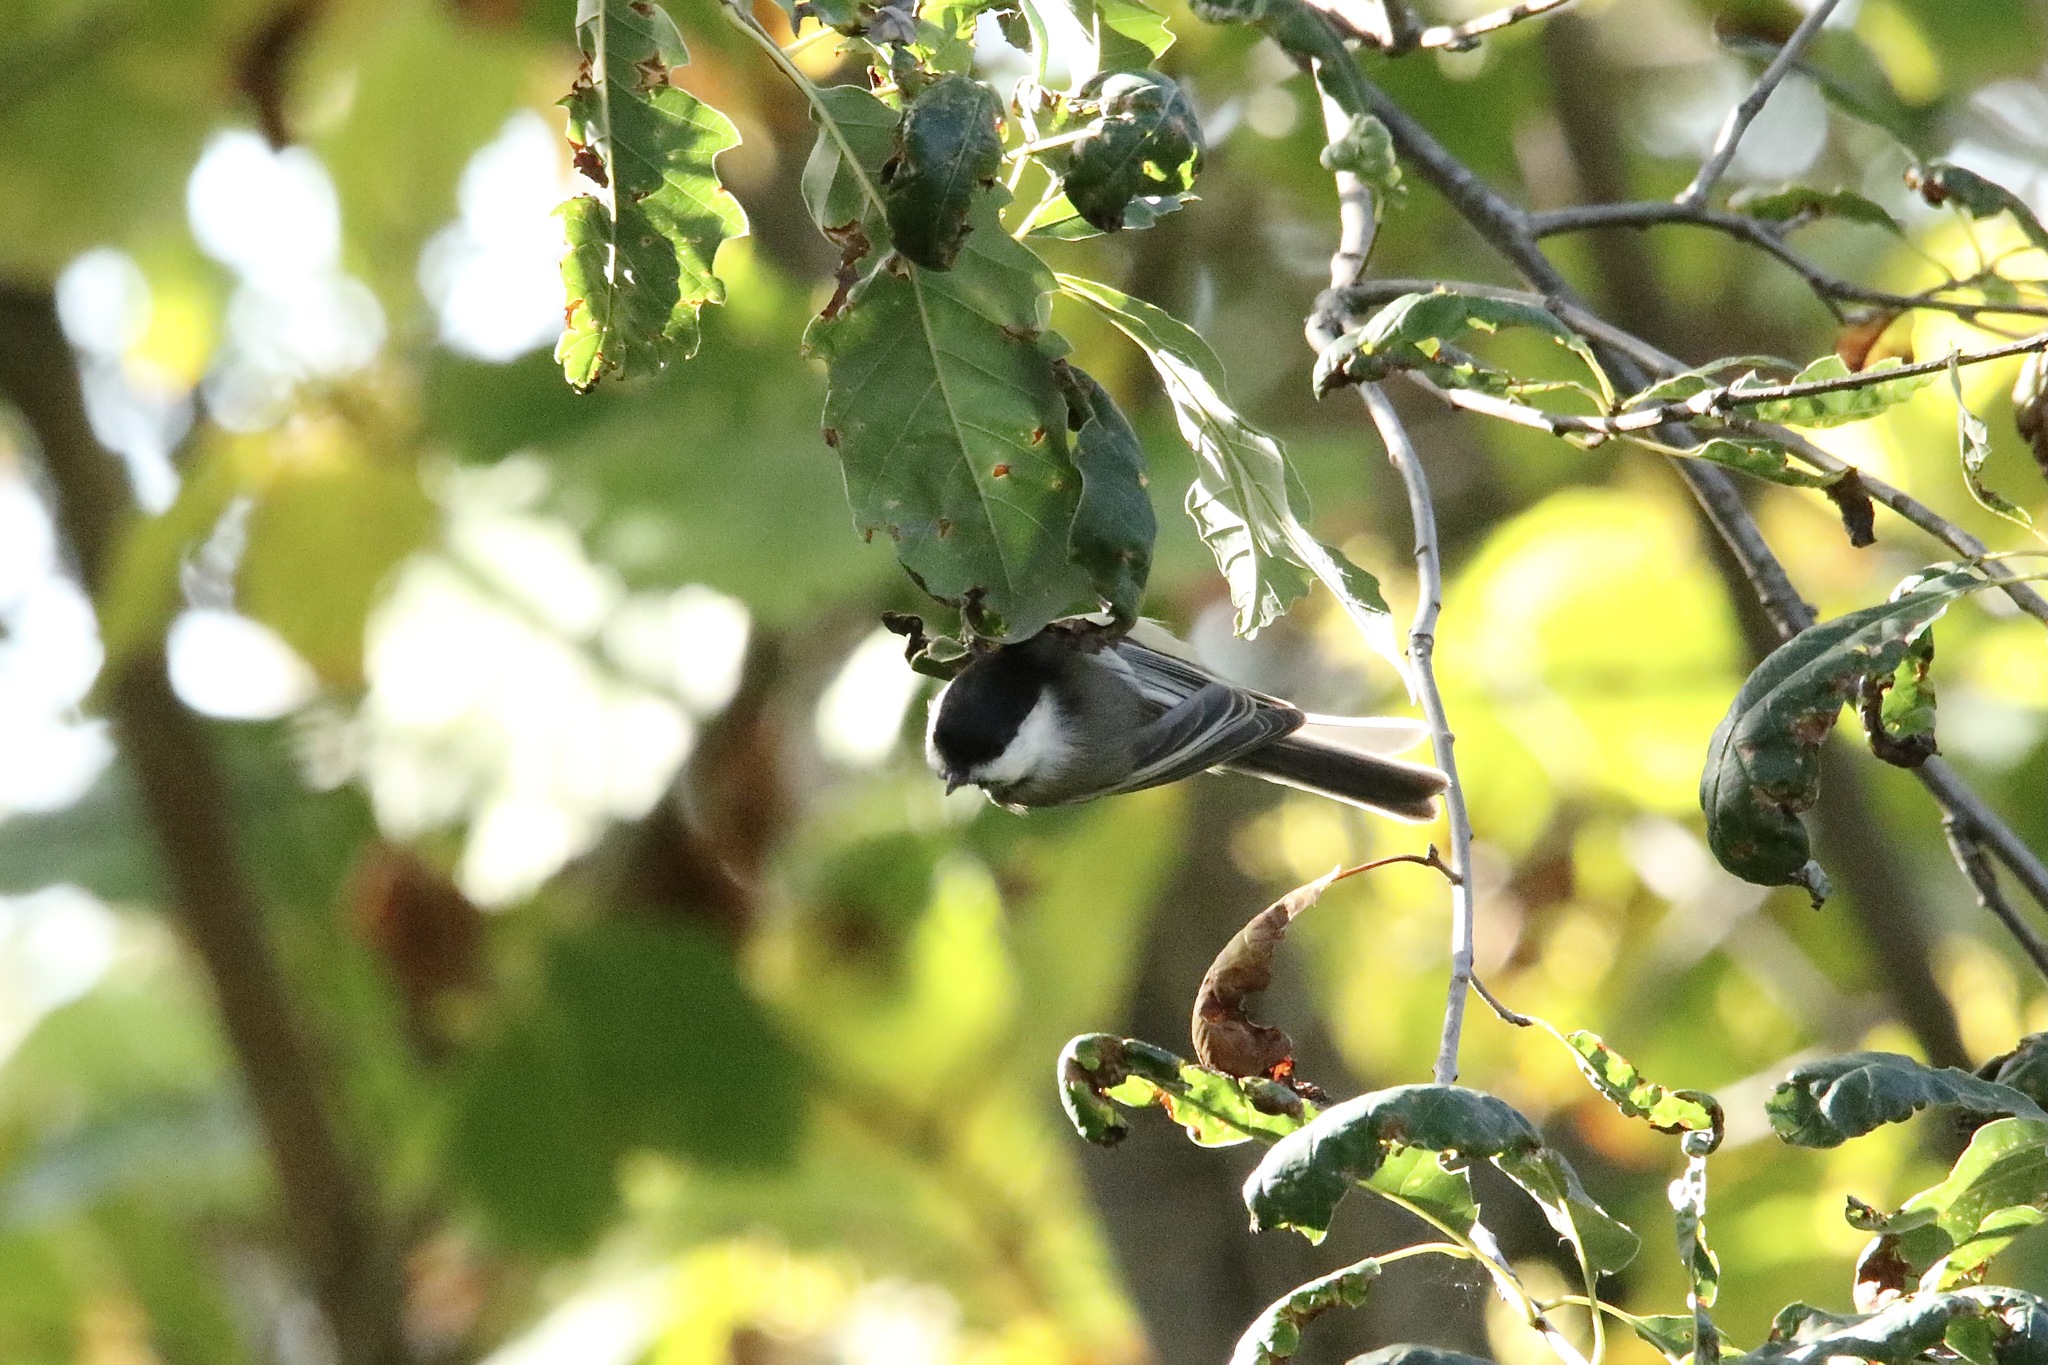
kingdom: Animalia
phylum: Chordata
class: Aves
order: Passeriformes
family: Paridae
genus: Poecile
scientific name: Poecile atricapillus
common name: Black-capped chickadee
